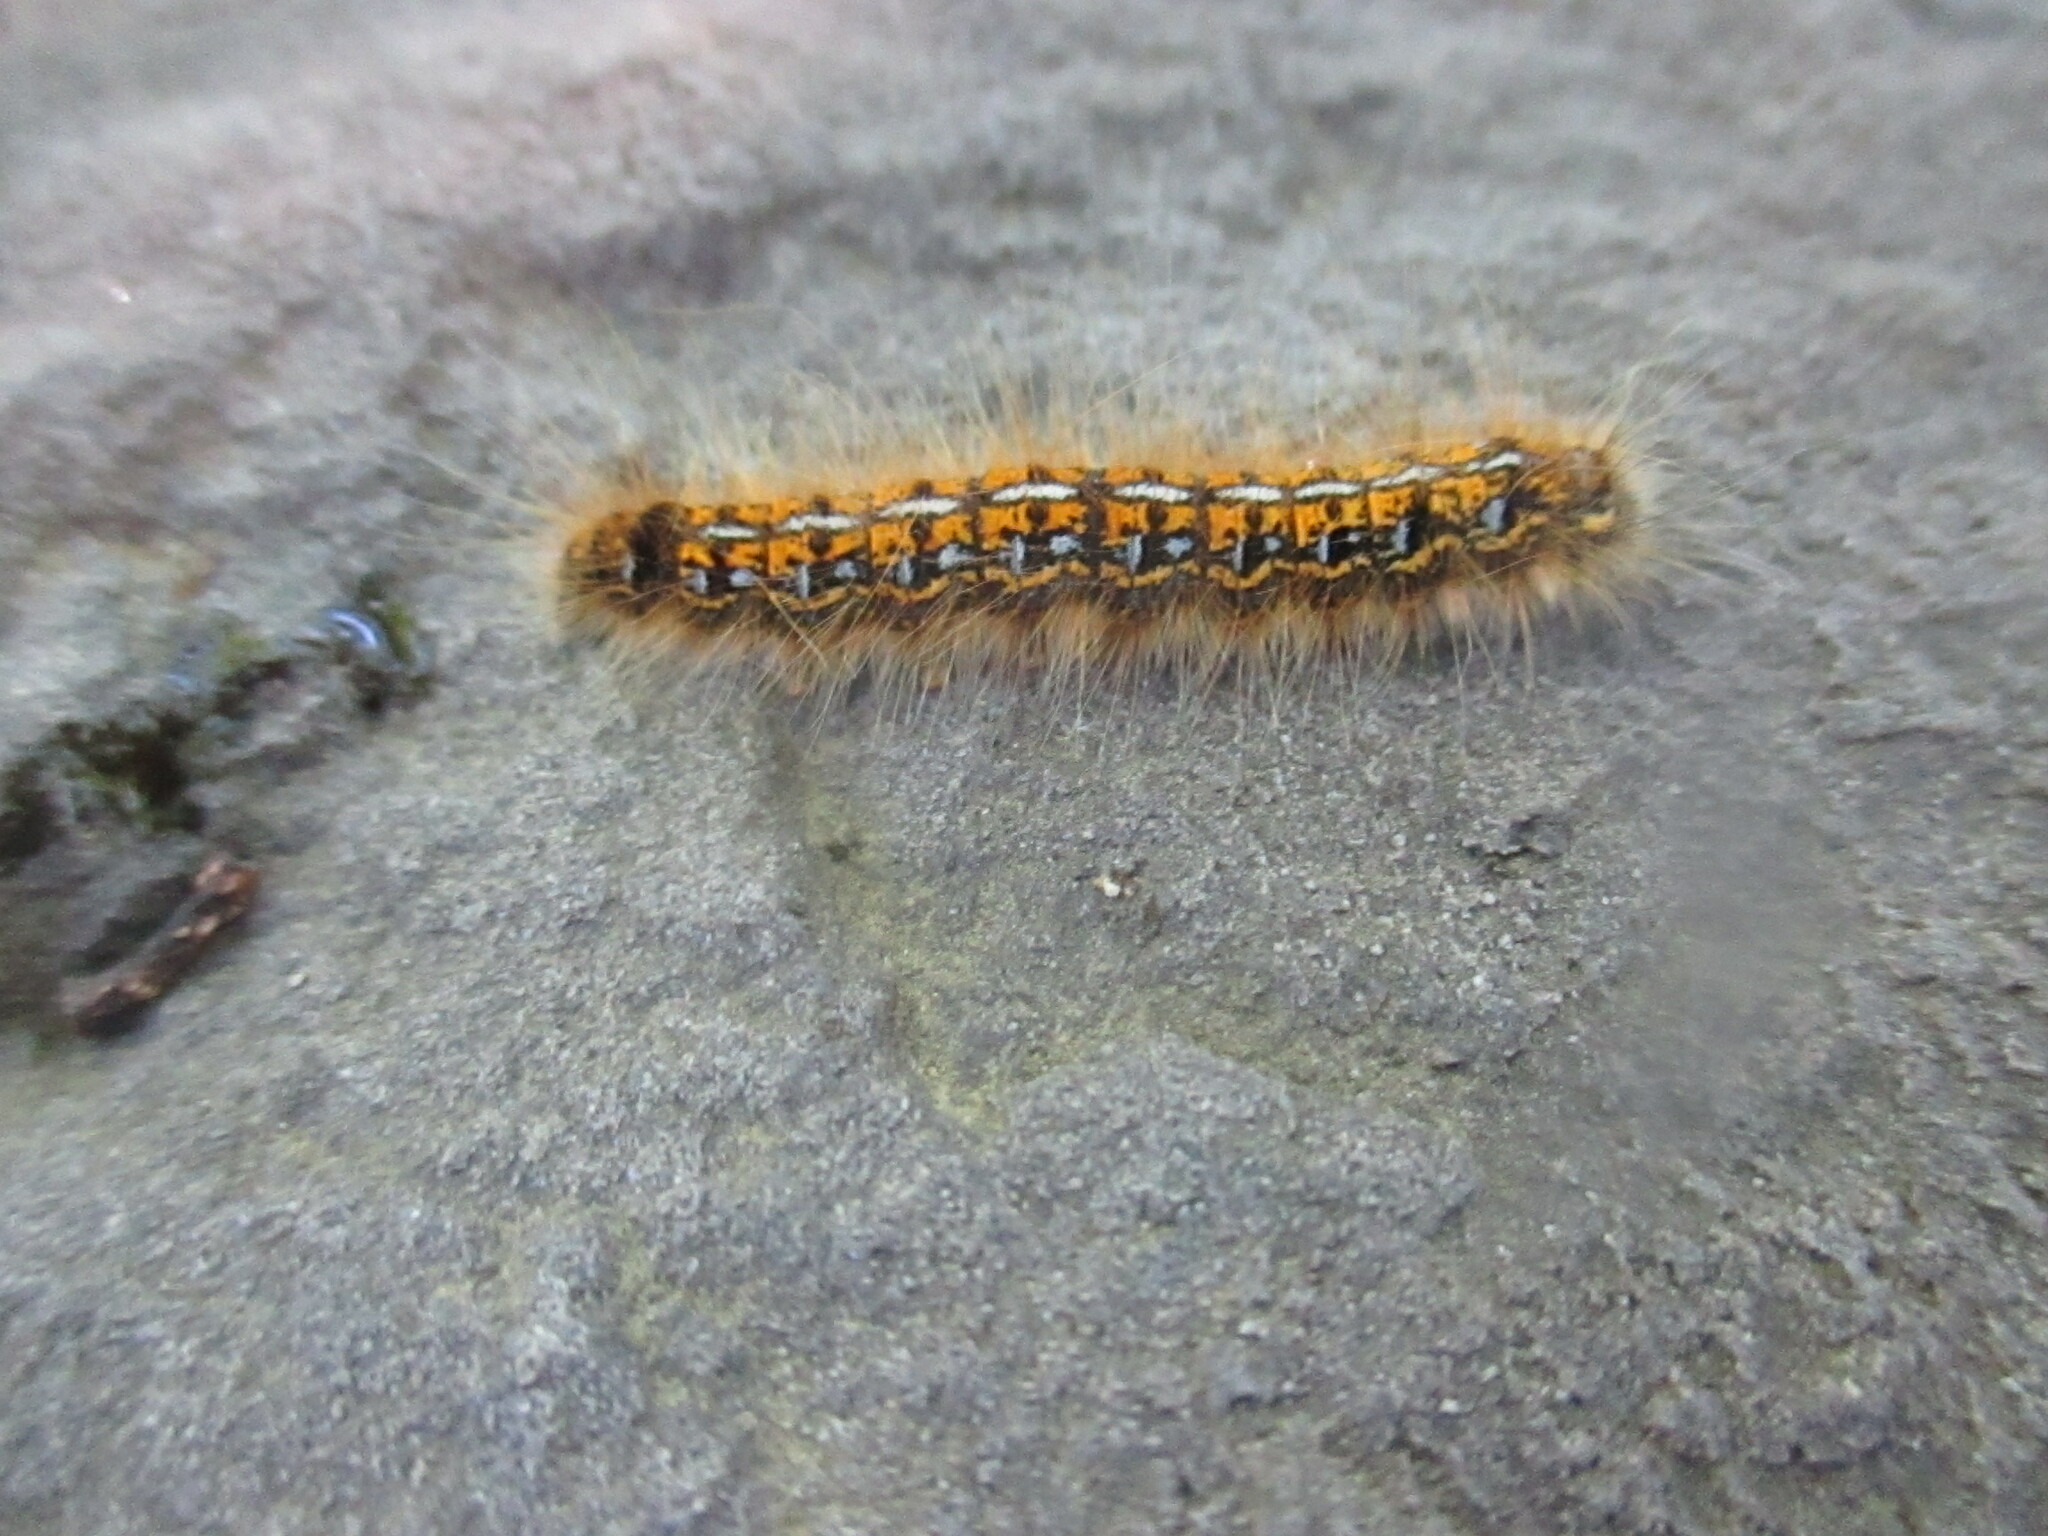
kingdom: Animalia
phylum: Arthropoda
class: Insecta
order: Lepidoptera
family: Lasiocampidae
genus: Malacosoma
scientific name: Malacosoma californica
